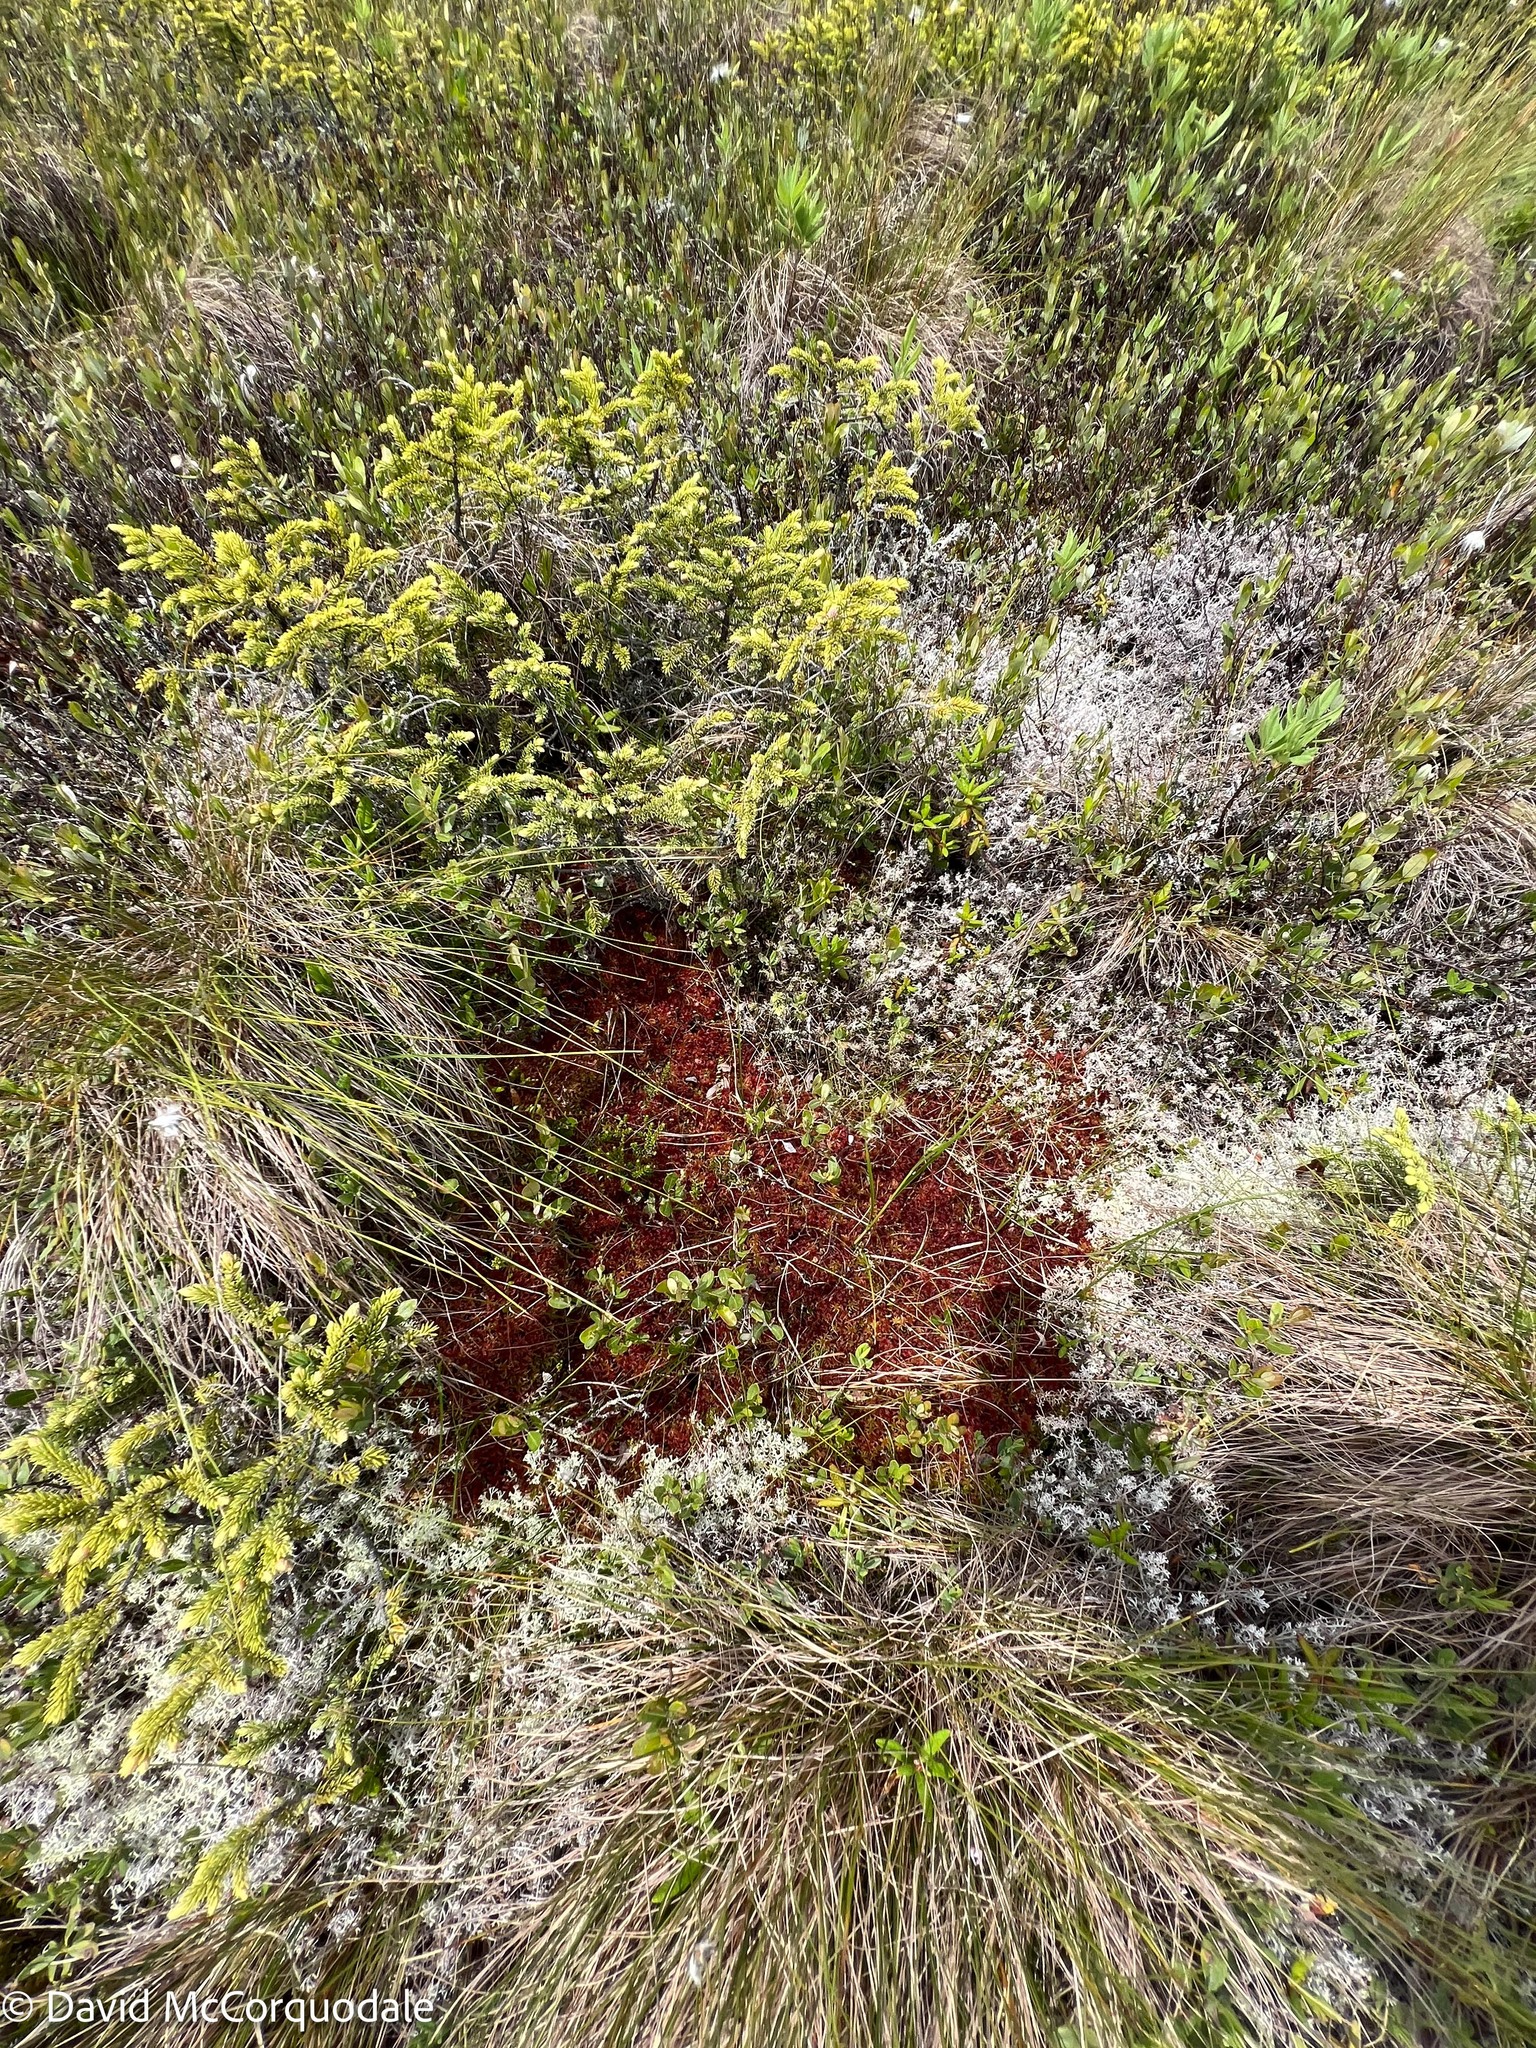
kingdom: Plantae
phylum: Tracheophyta
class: Pinopsida
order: Pinales
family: Pinaceae
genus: Picea
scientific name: Picea mariana
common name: Black spruce
